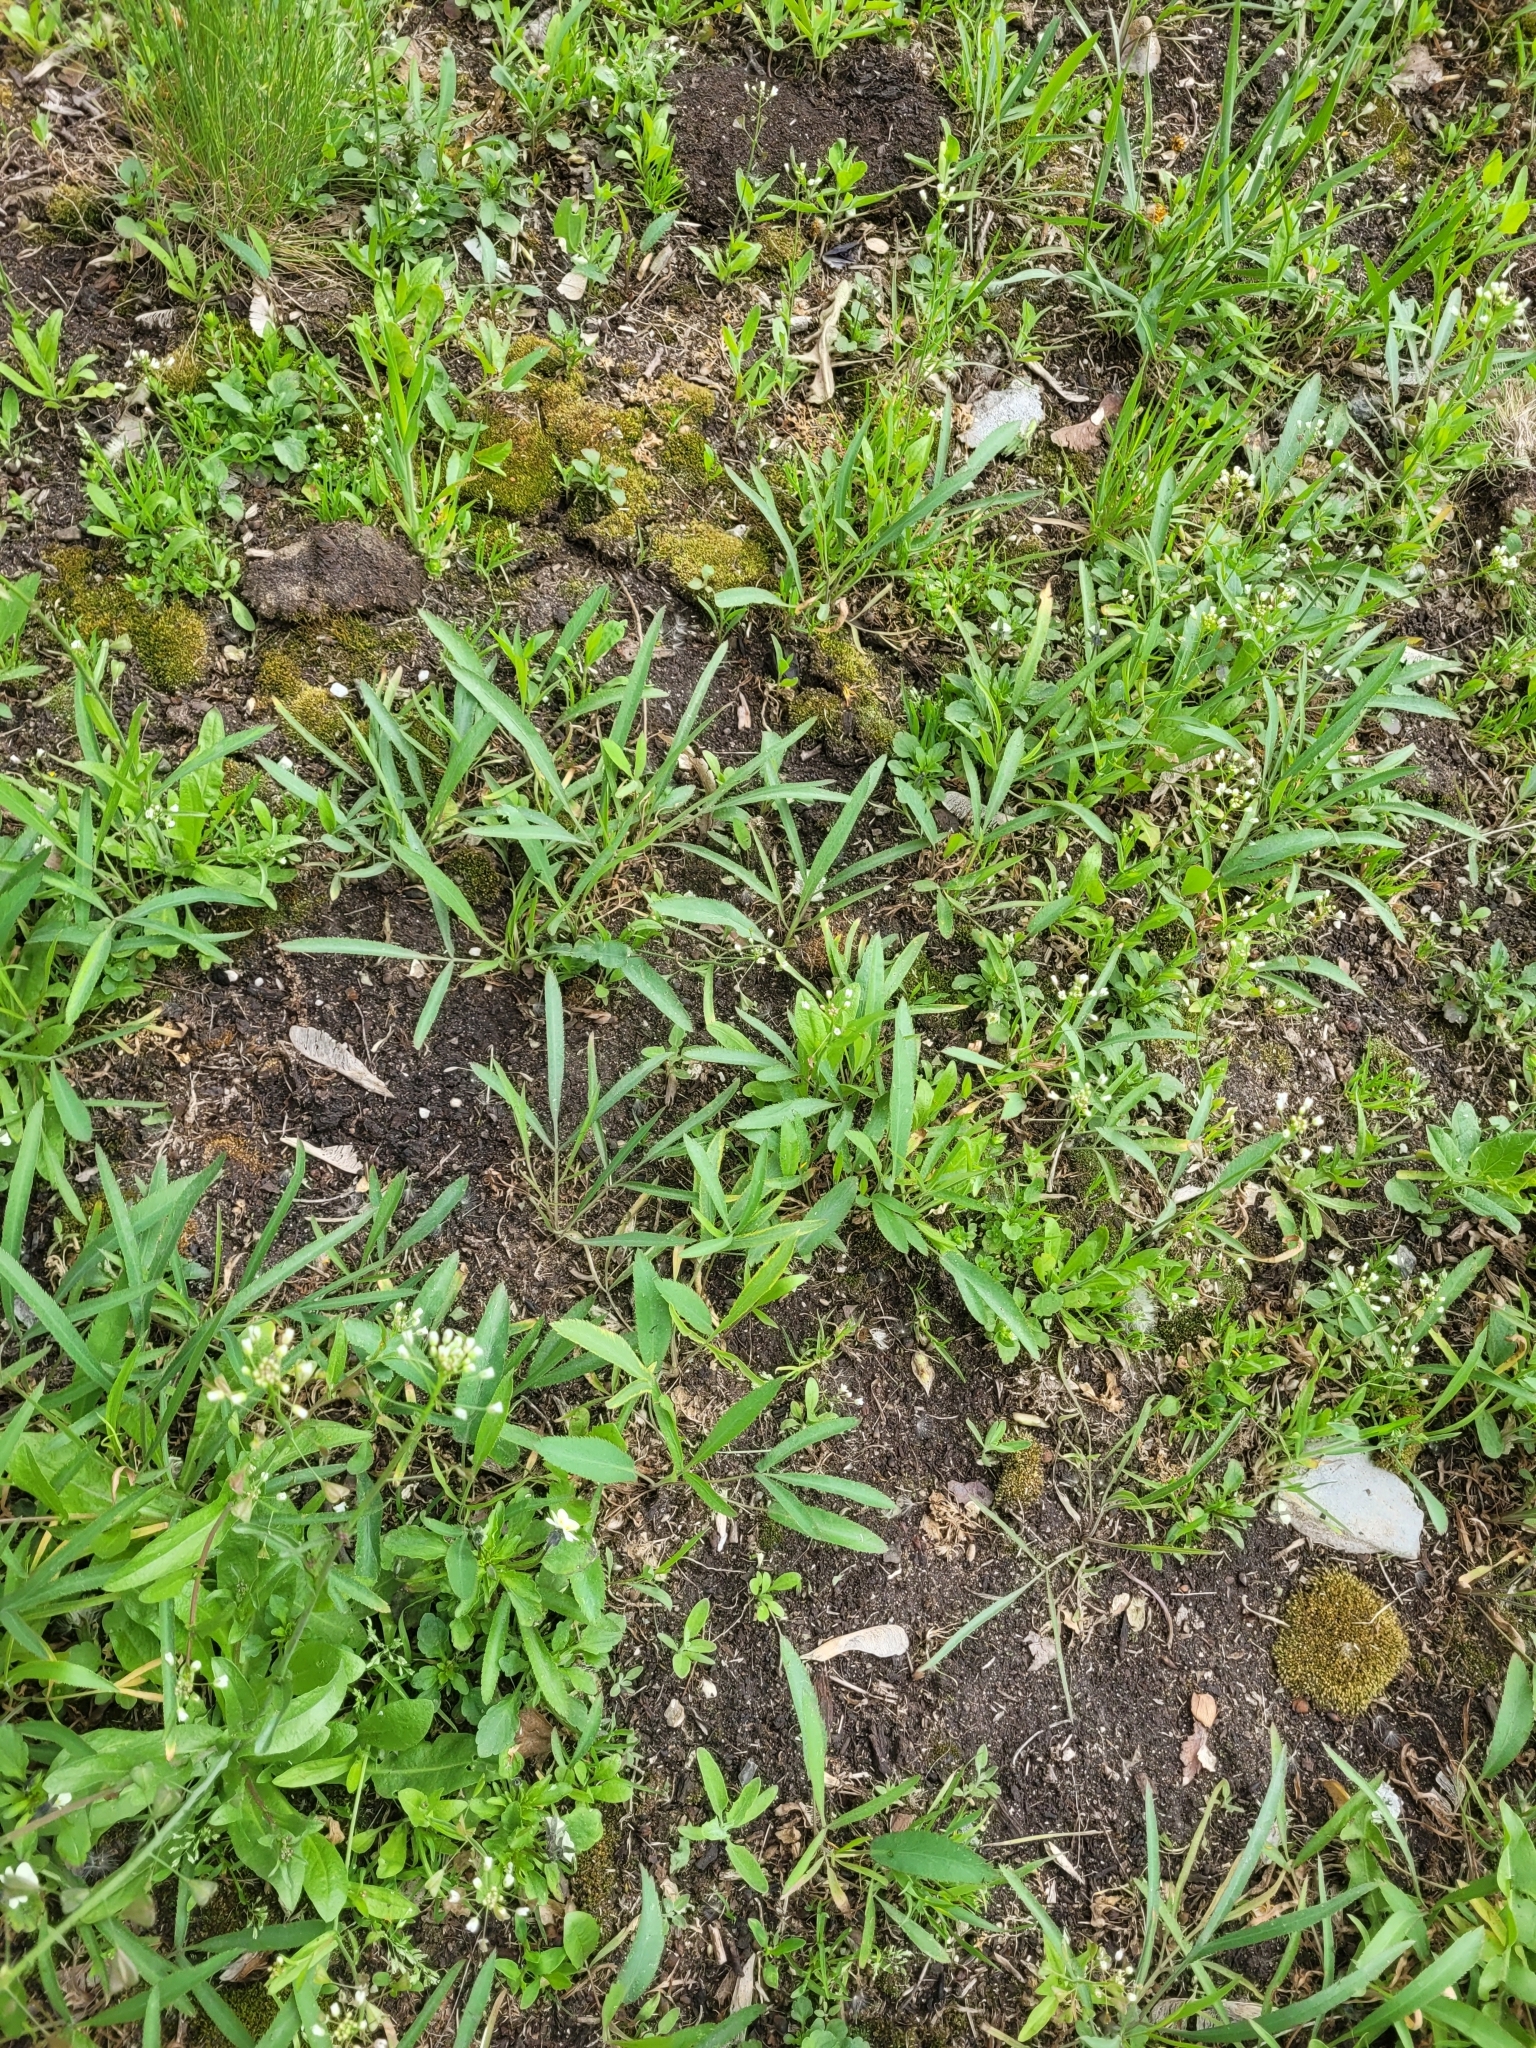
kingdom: Plantae
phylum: Tracheophyta
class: Magnoliopsida
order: Apiales
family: Apiaceae
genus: Falcaria
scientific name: Falcaria vulgaris
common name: Longleaf
